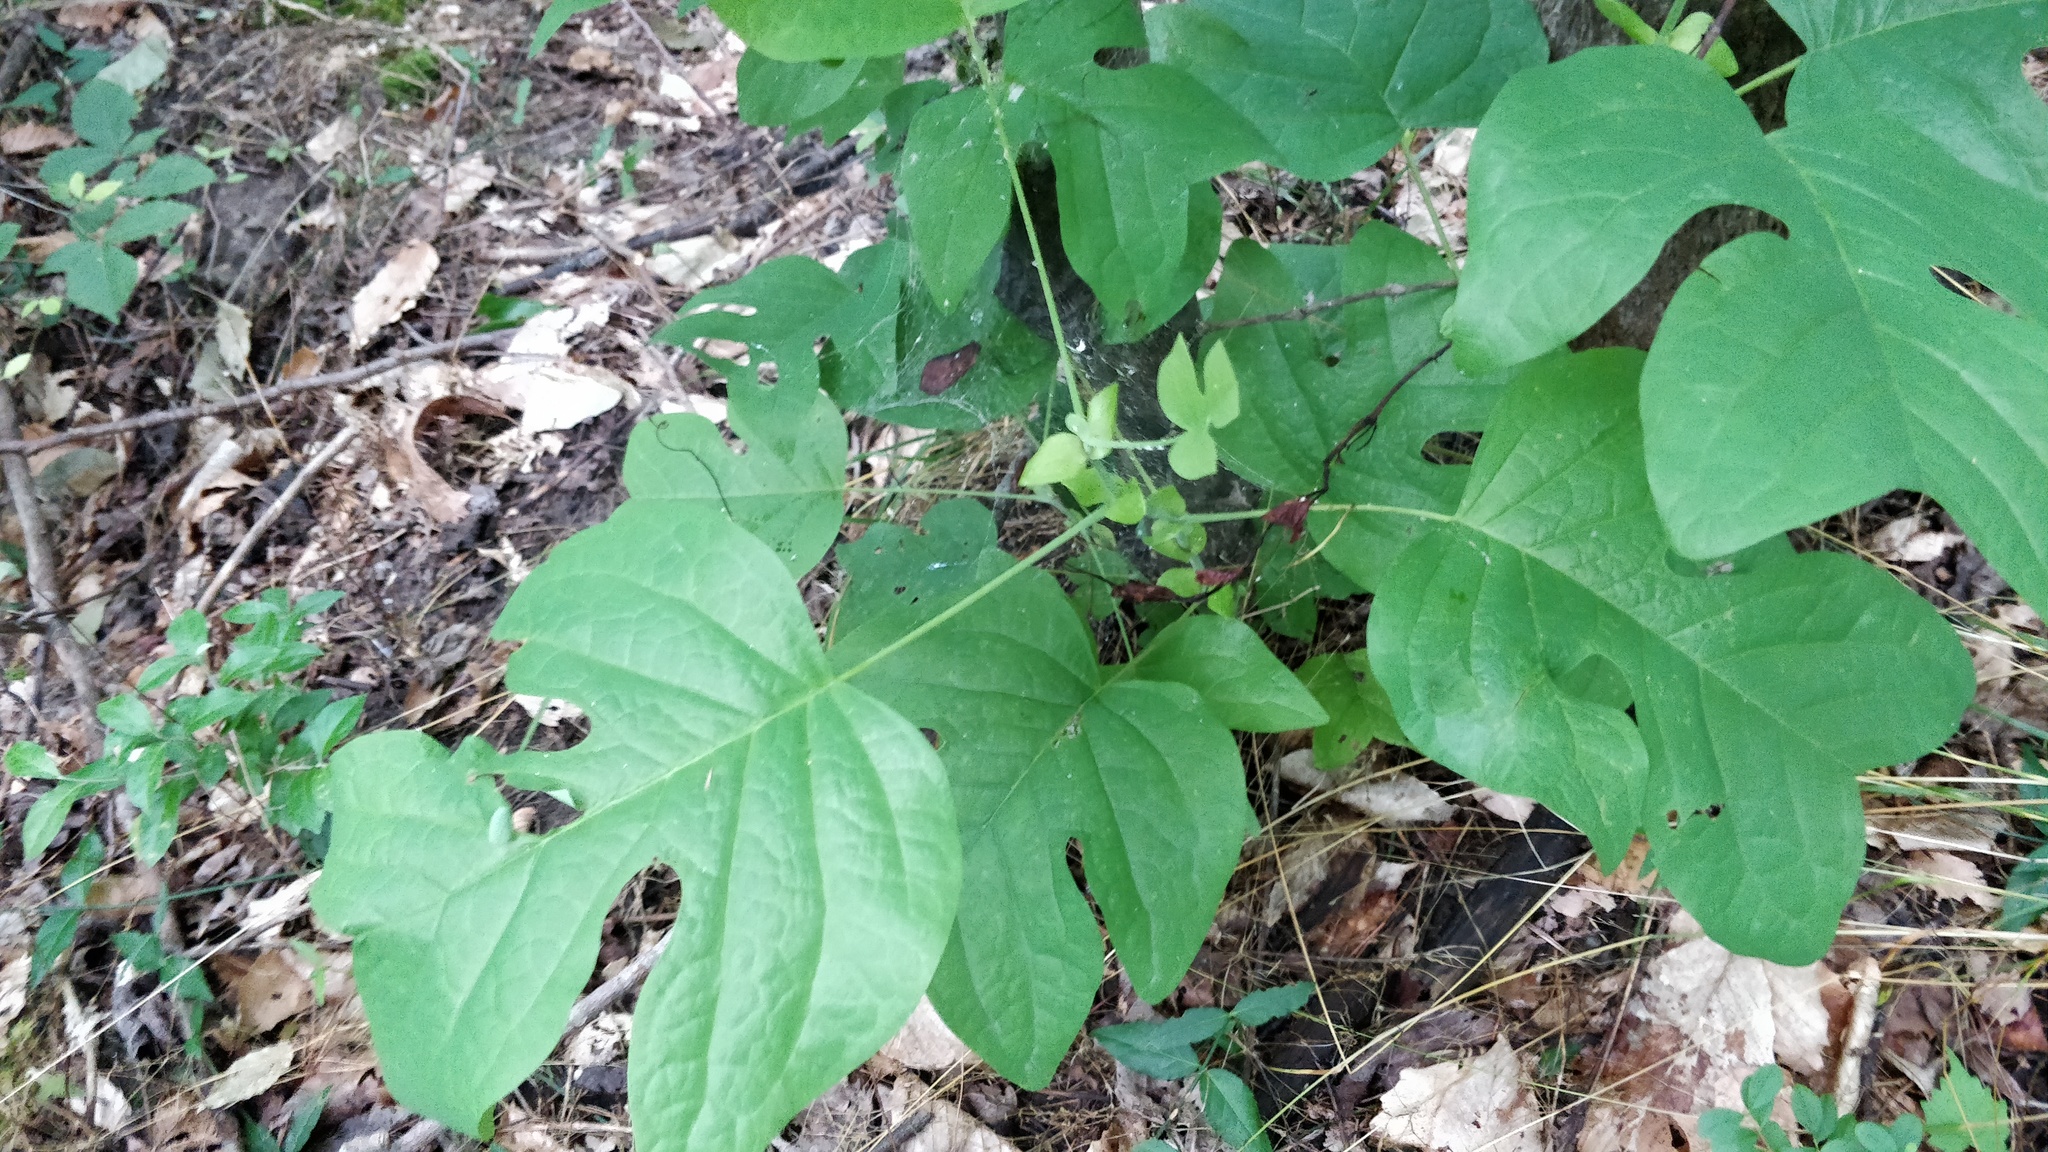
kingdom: Plantae
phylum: Tracheophyta
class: Magnoliopsida
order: Magnoliales
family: Magnoliaceae
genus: Liriodendron
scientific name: Liriodendron tulipifera
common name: Tulip tree
